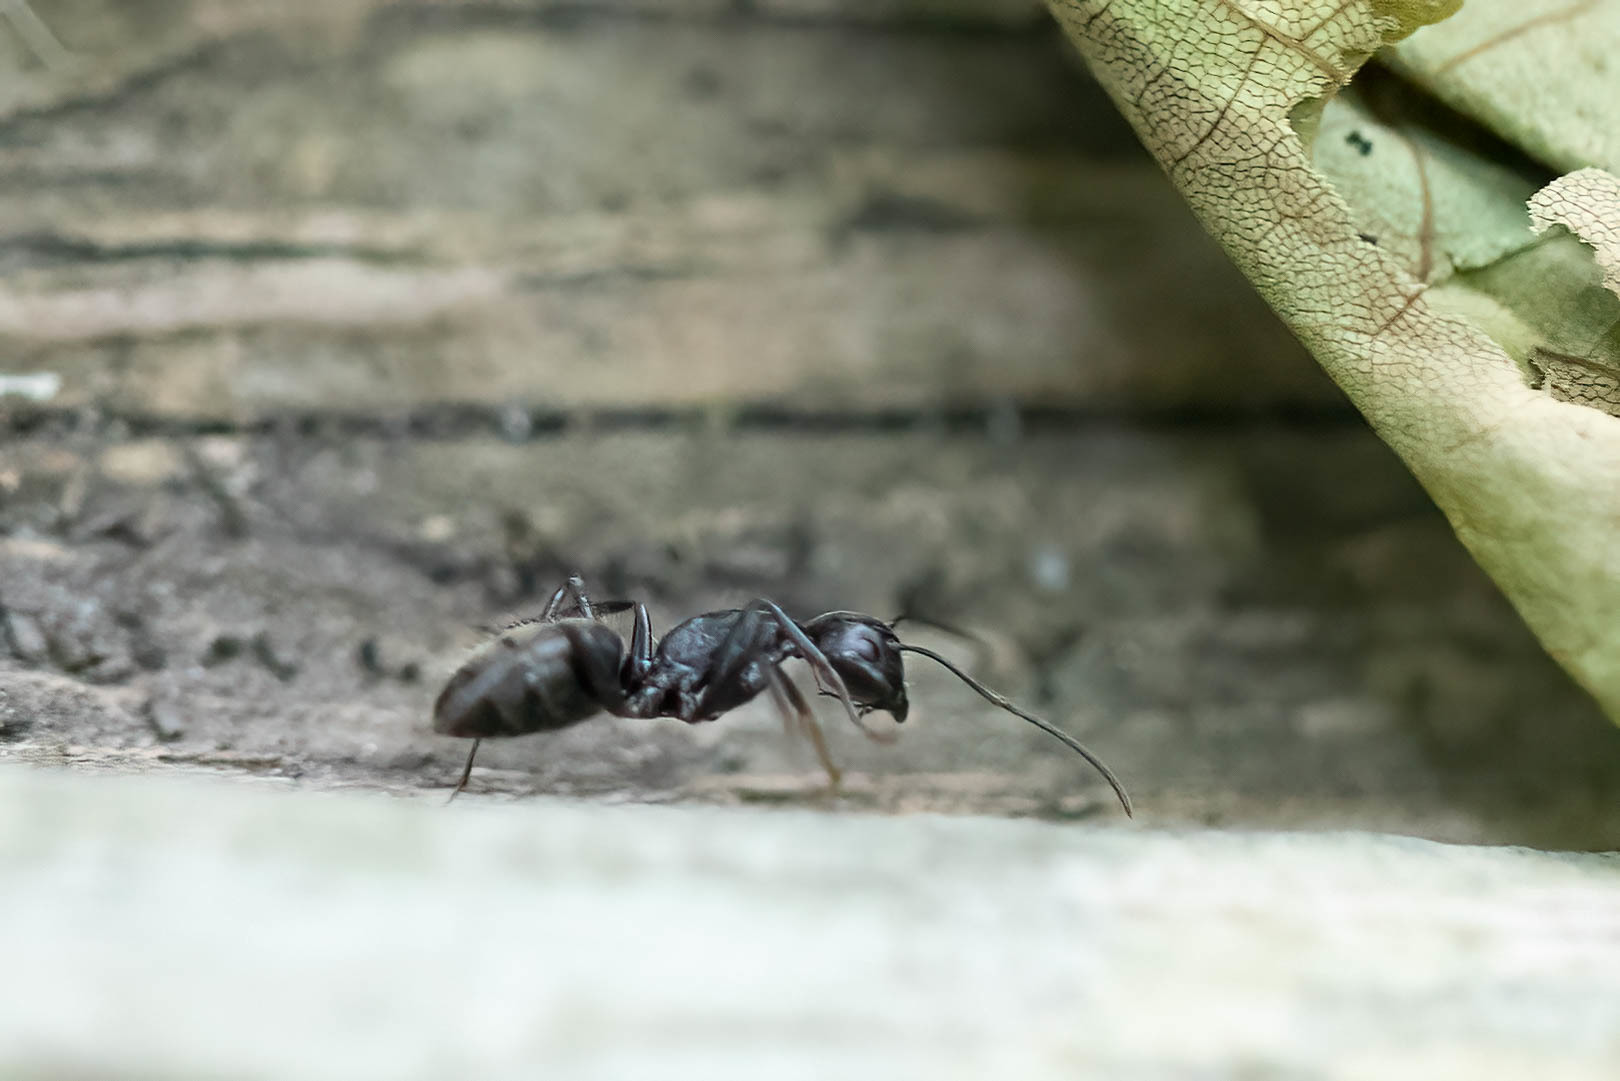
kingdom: Animalia
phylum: Arthropoda
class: Insecta
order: Hymenoptera
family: Formicidae
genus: Camponotus
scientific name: Camponotus pennsylvanicus
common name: Black carpenter ant
